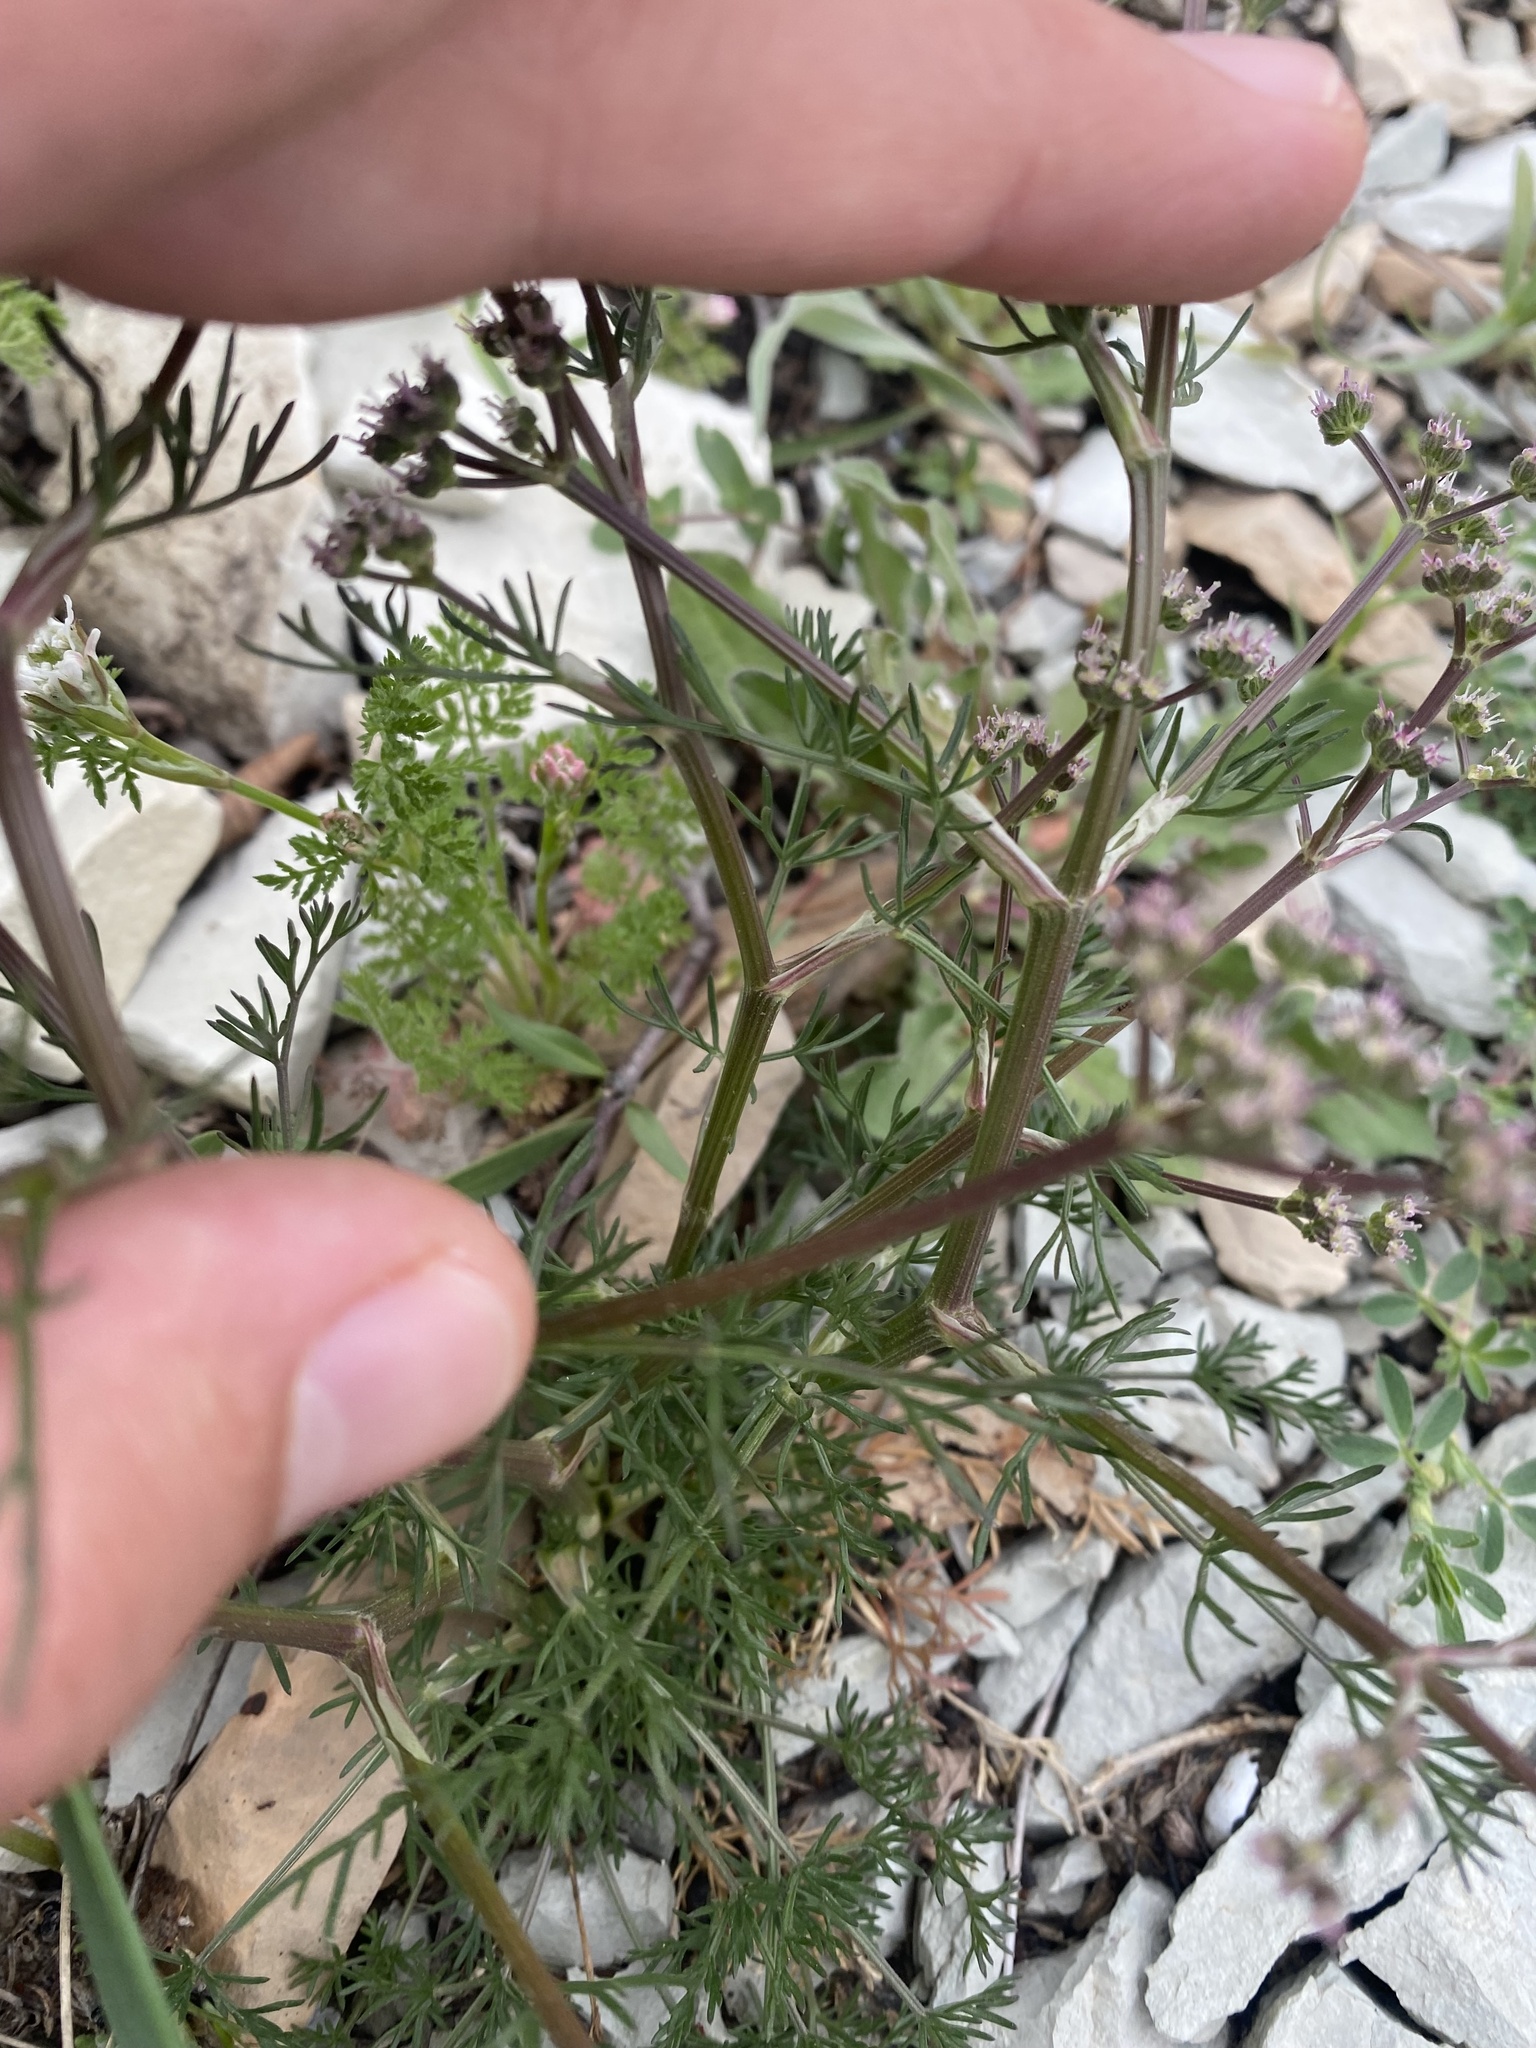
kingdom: Plantae
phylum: Tracheophyta
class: Magnoliopsida
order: Apiales
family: Apiaceae
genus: Trinia
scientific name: Trinia glauca
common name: Honewort
